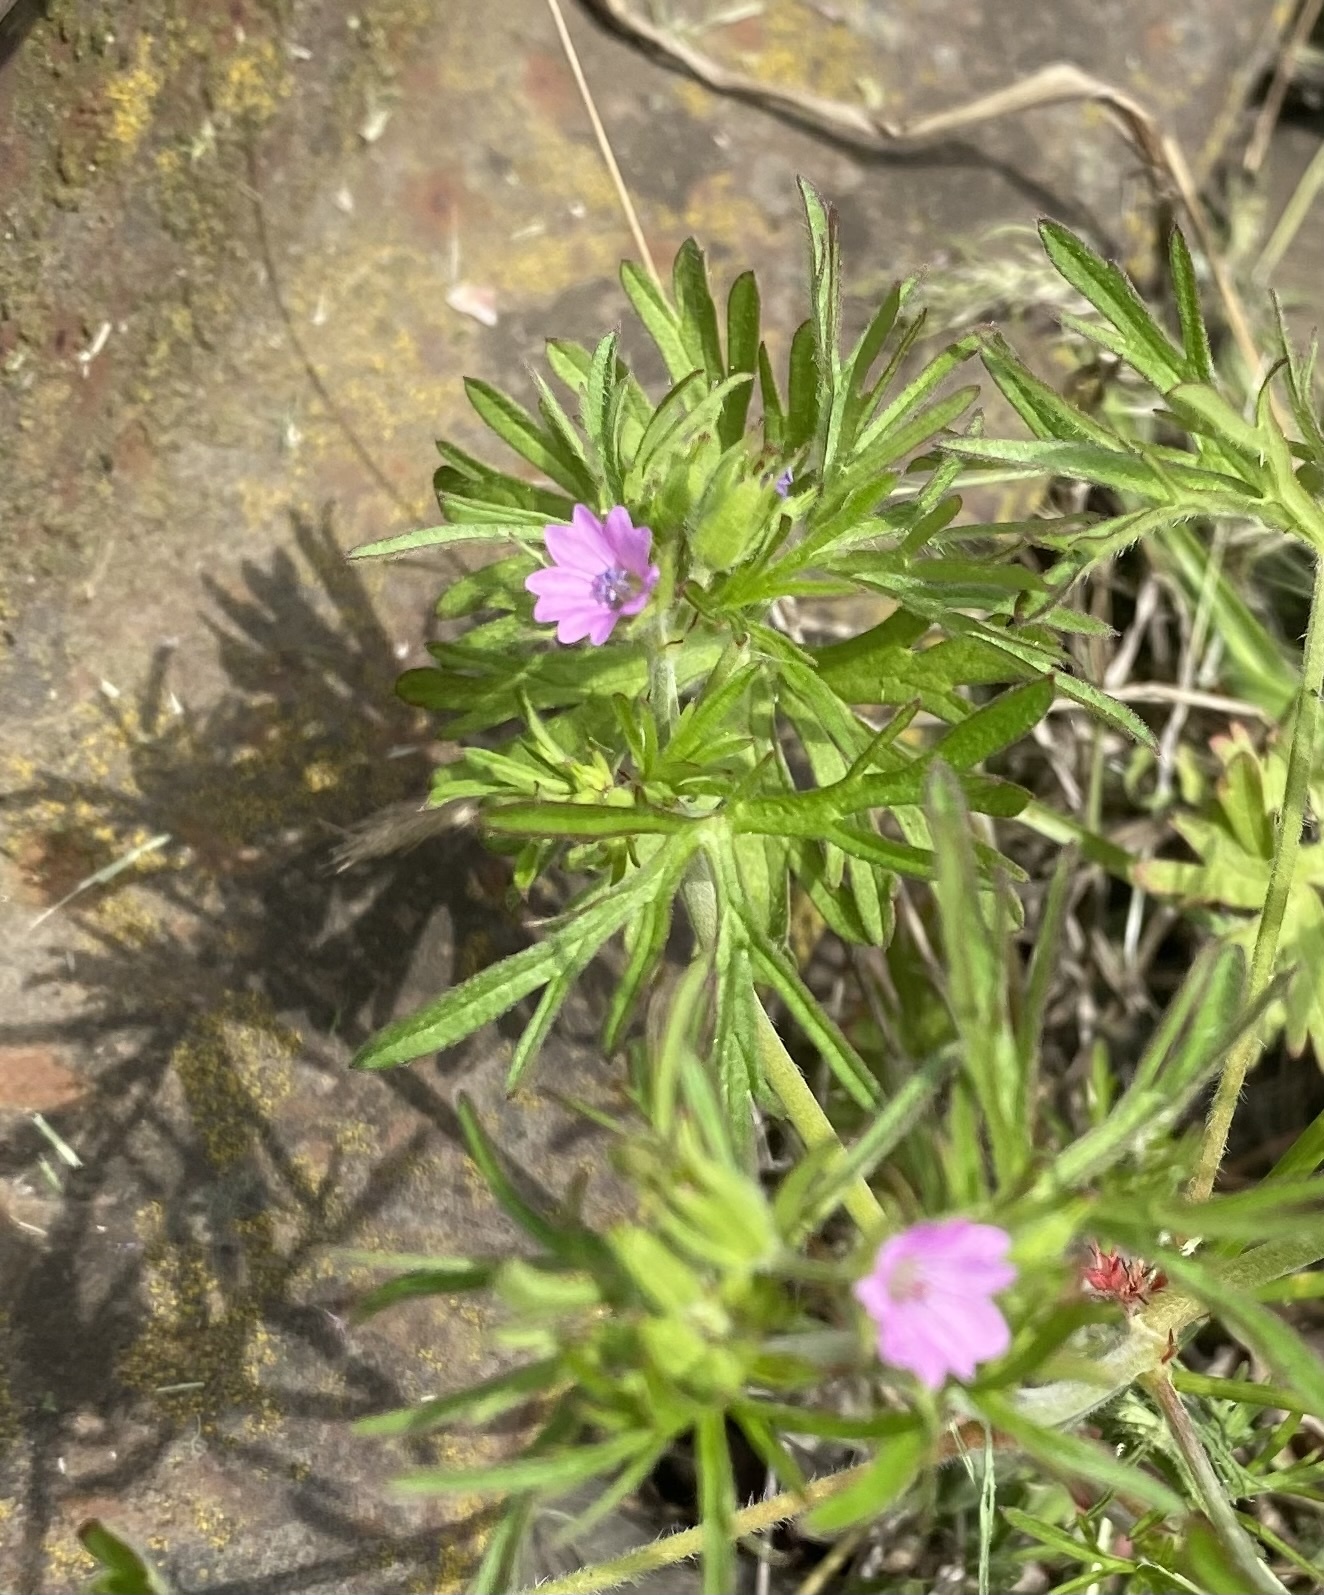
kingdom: Plantae
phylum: Tracheophyta
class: Magnoliopsida
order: Geraniales
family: Geraniaceae
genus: Geranium
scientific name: Geranium dissectum
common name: Cut-leaved crane's-bill
